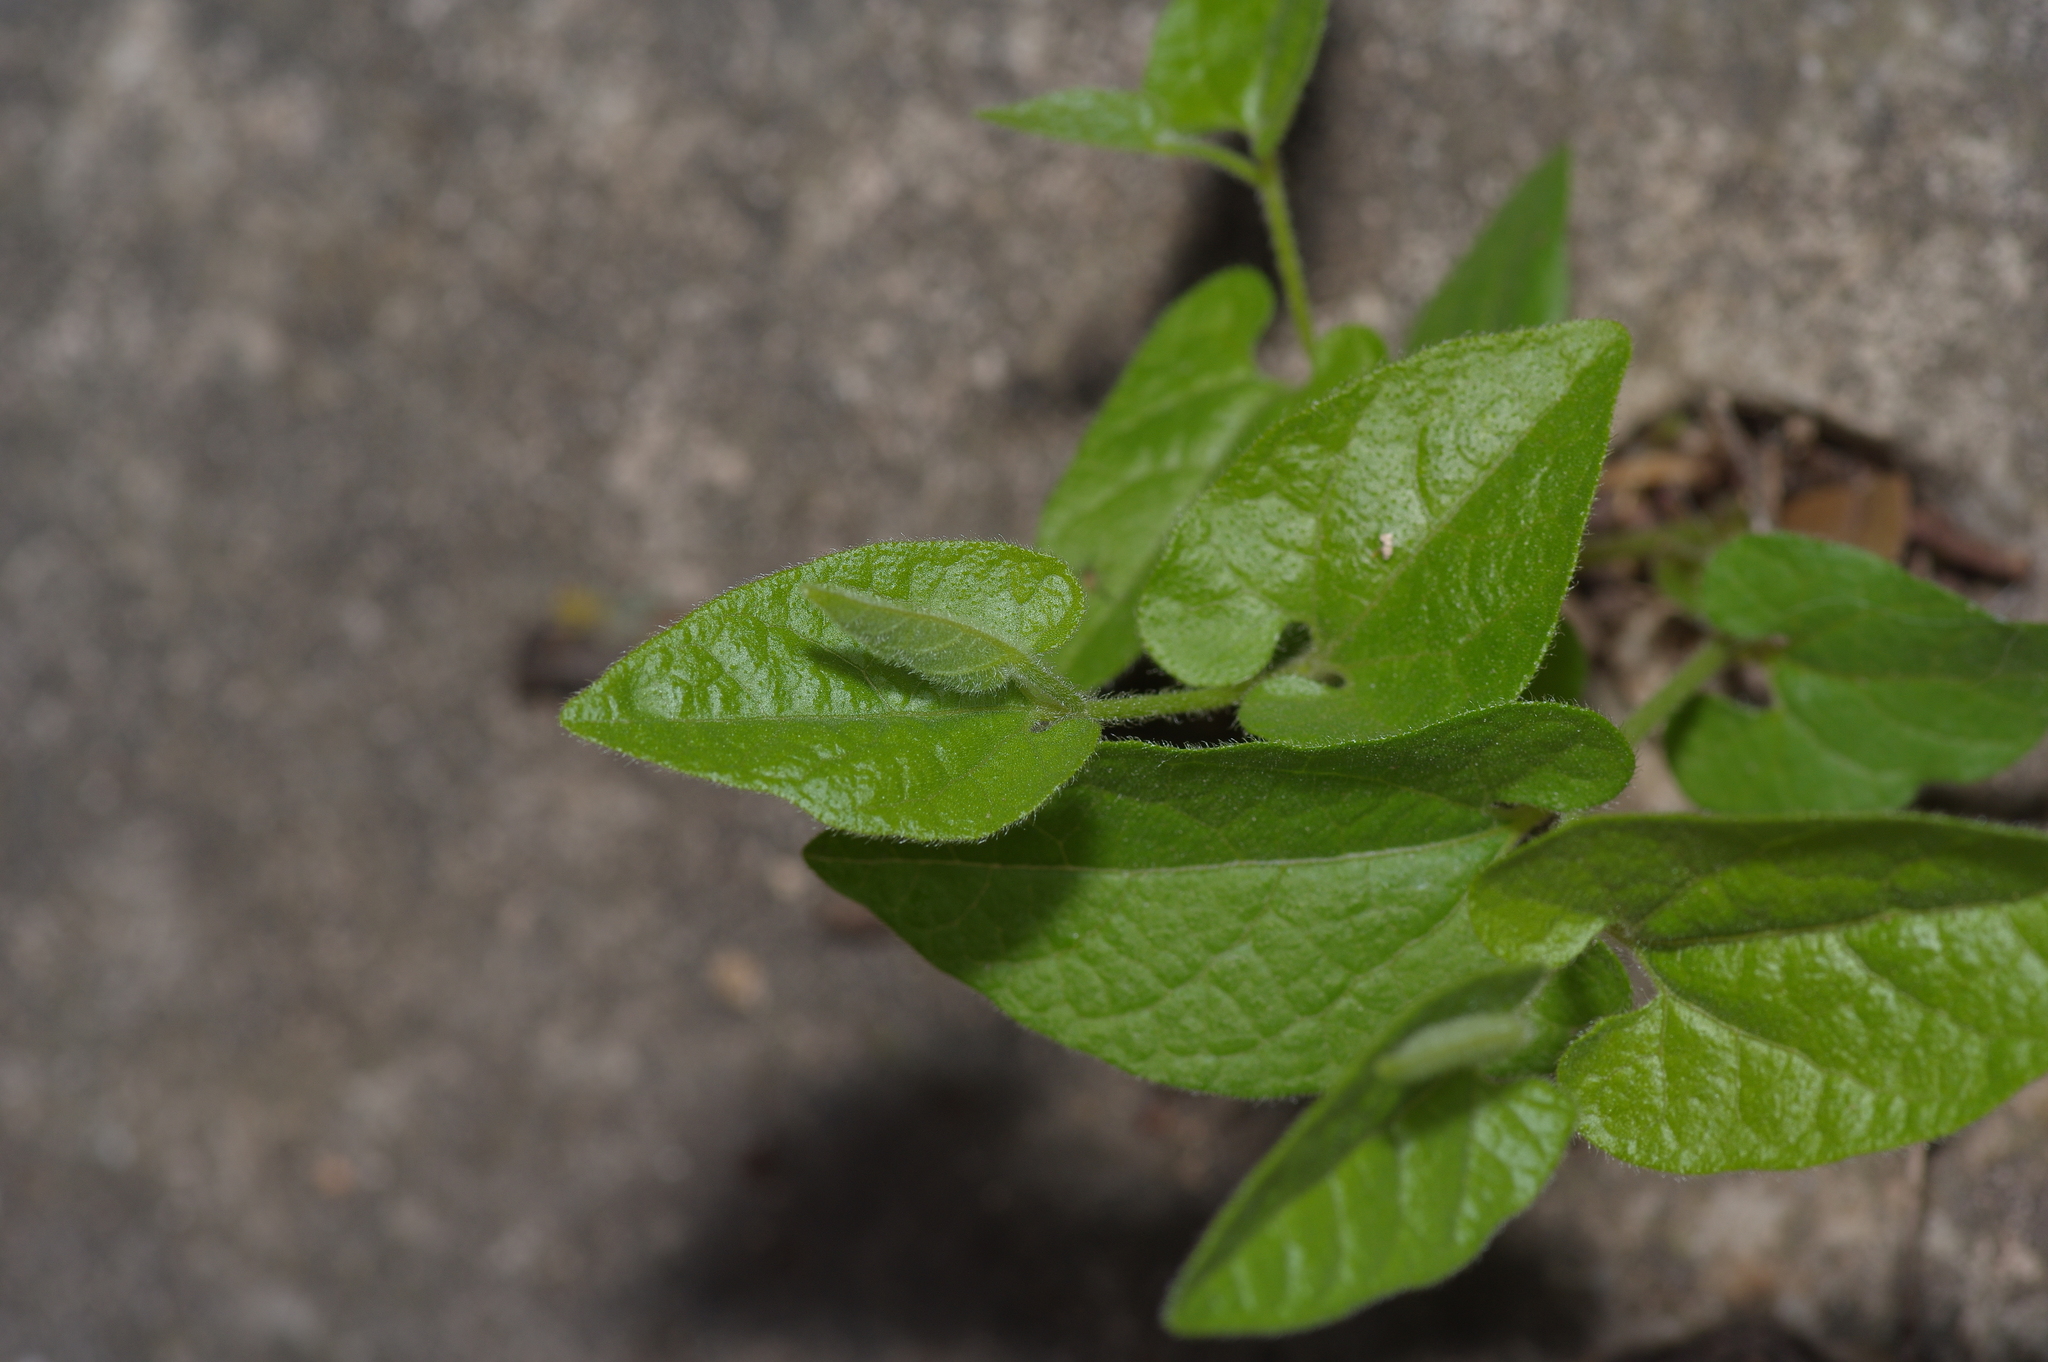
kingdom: Plantae
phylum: Tracheophyta
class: Magnoliopsida
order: Piperales
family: Aristolochiaceae
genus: Endodeca
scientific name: Endodeca serpentaria
